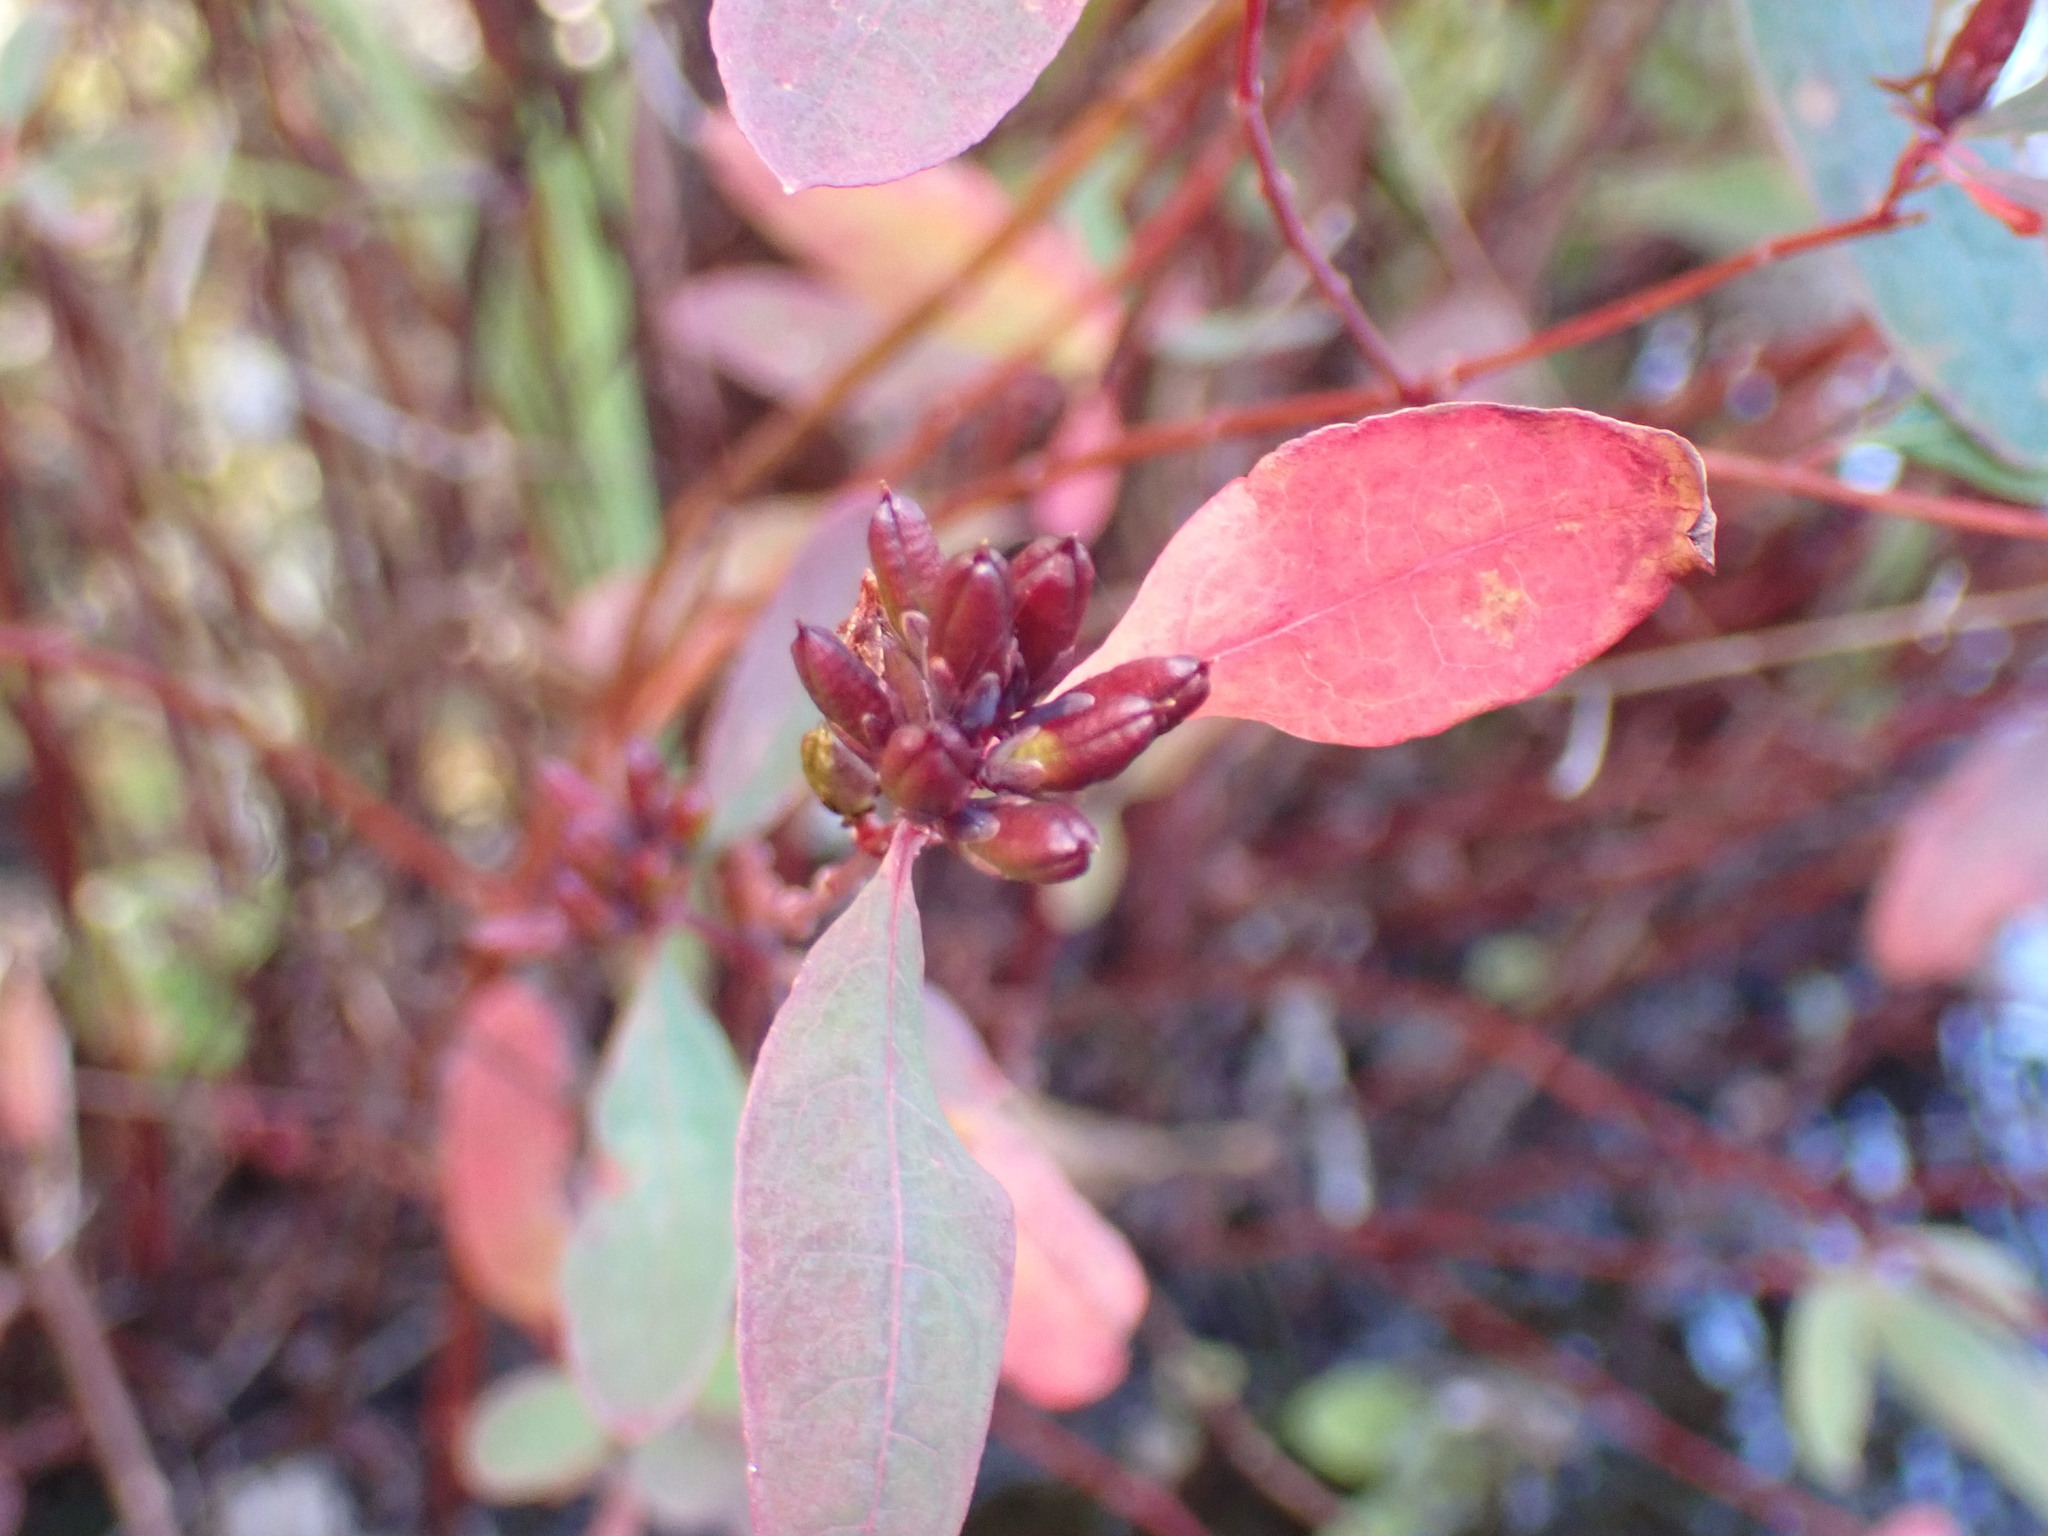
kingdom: Plantae
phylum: Tracheophyta
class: Magnoliopsida
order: Malpighiales
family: Hypericaceae
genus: Triadenum
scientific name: Triadenum walteri
